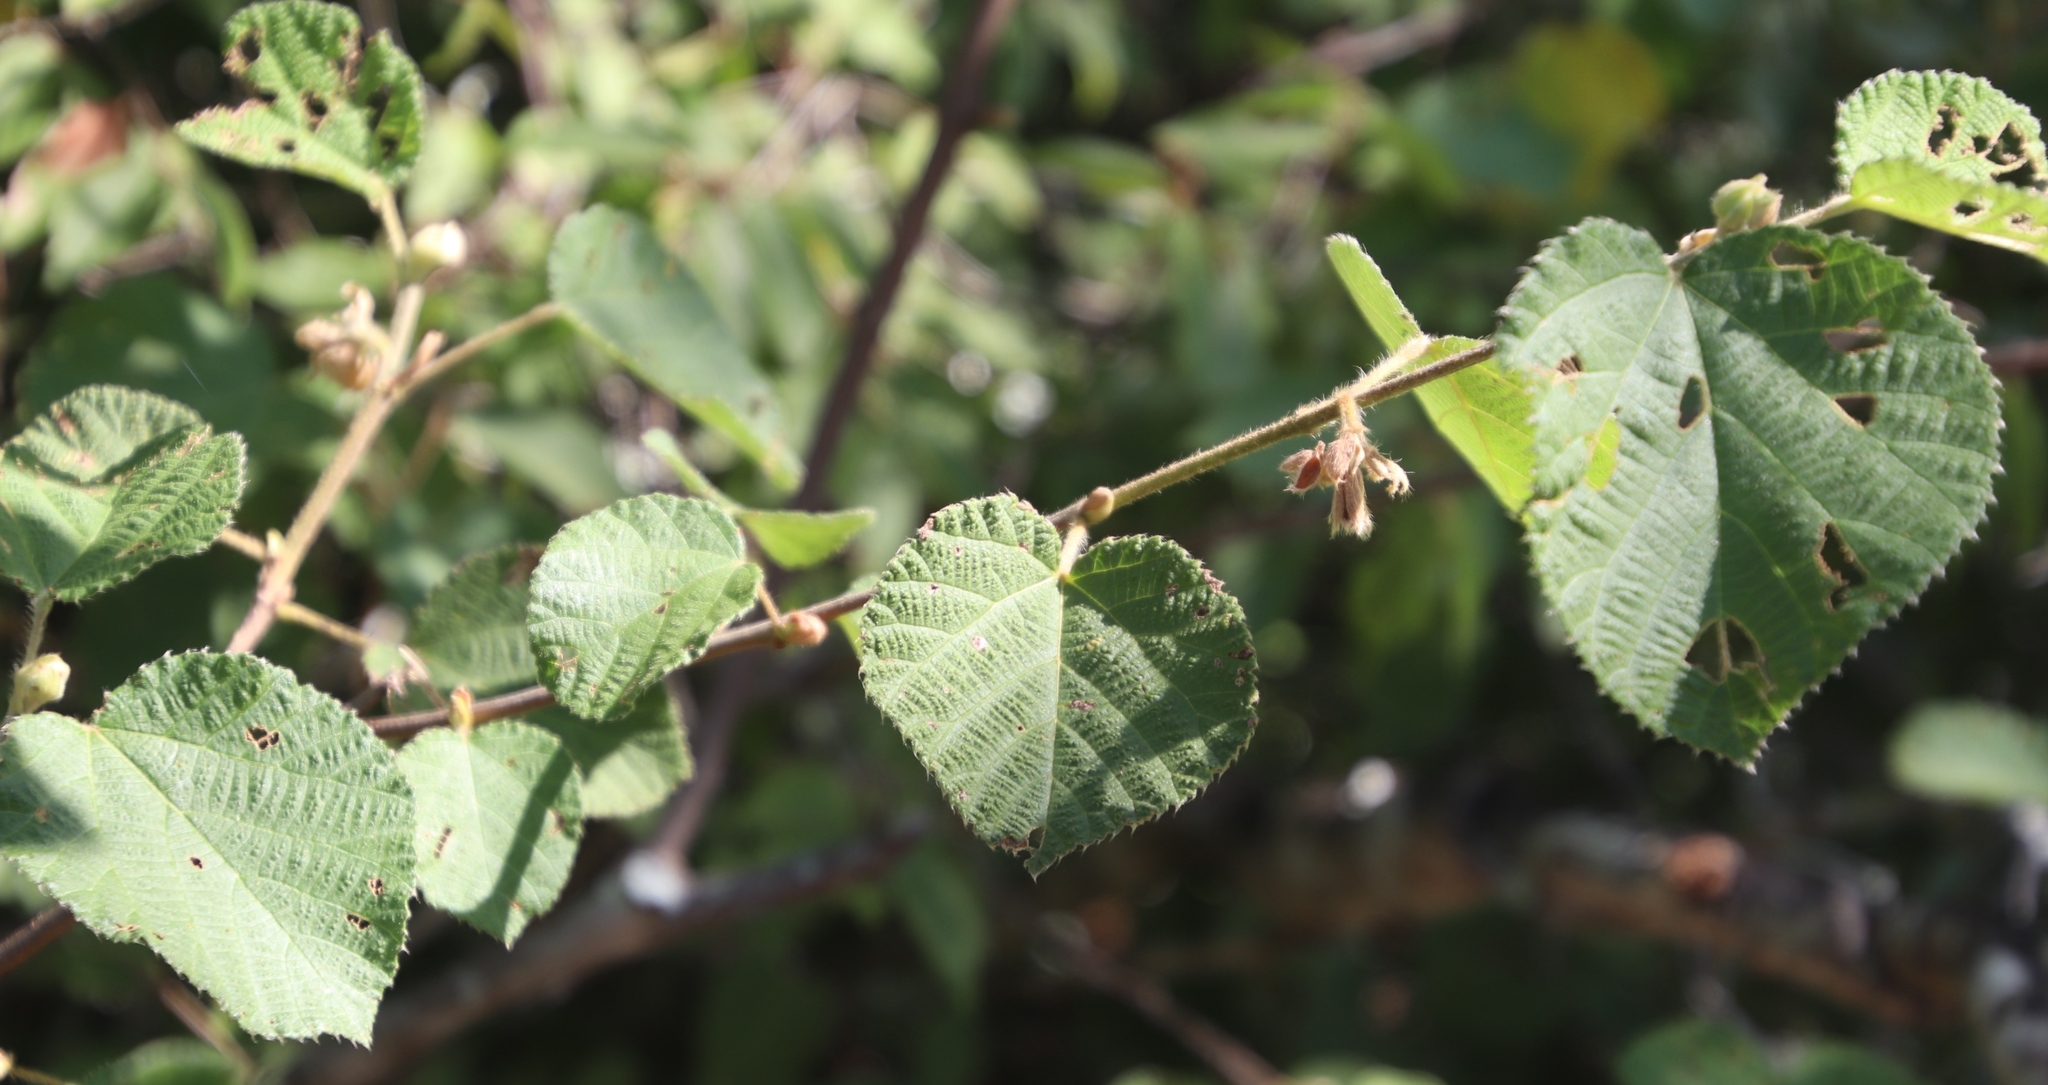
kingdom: Plantae
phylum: Tracheophyta
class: Magnoliopsida
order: Malvales
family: Malvaceae
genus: Grewia
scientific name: Grewia villosa
